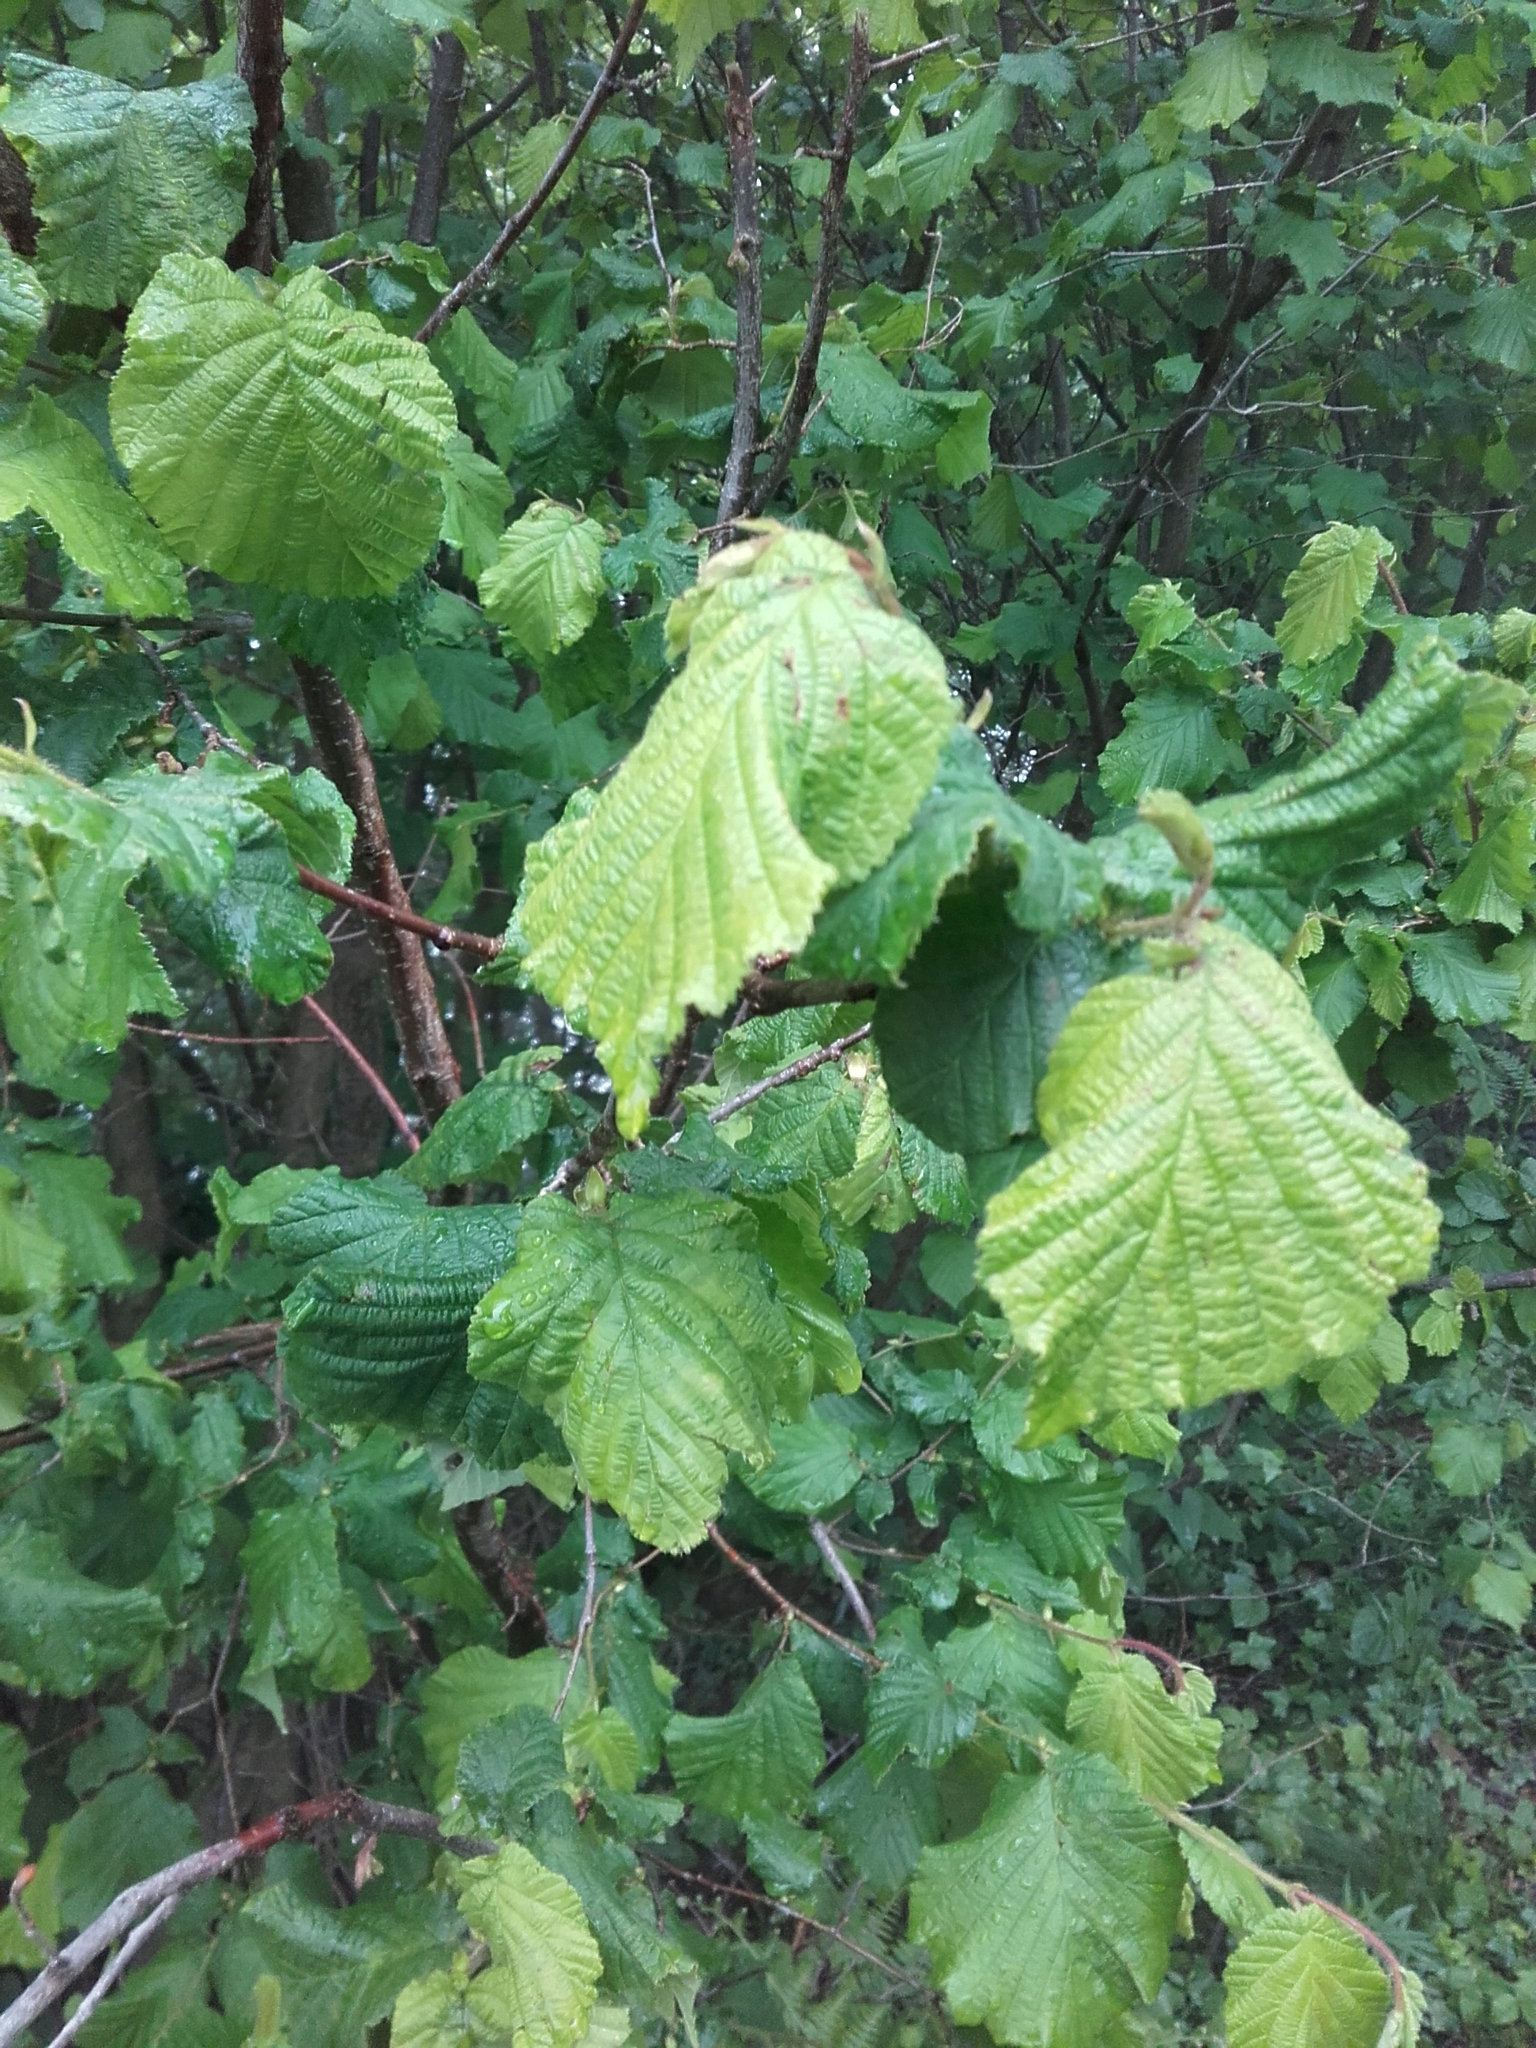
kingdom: Plantae
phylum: Tracheophyta
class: Magnoliopsida
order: Fagales
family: Betulaceae
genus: Corylus
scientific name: Corylus avellana
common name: European hazel
